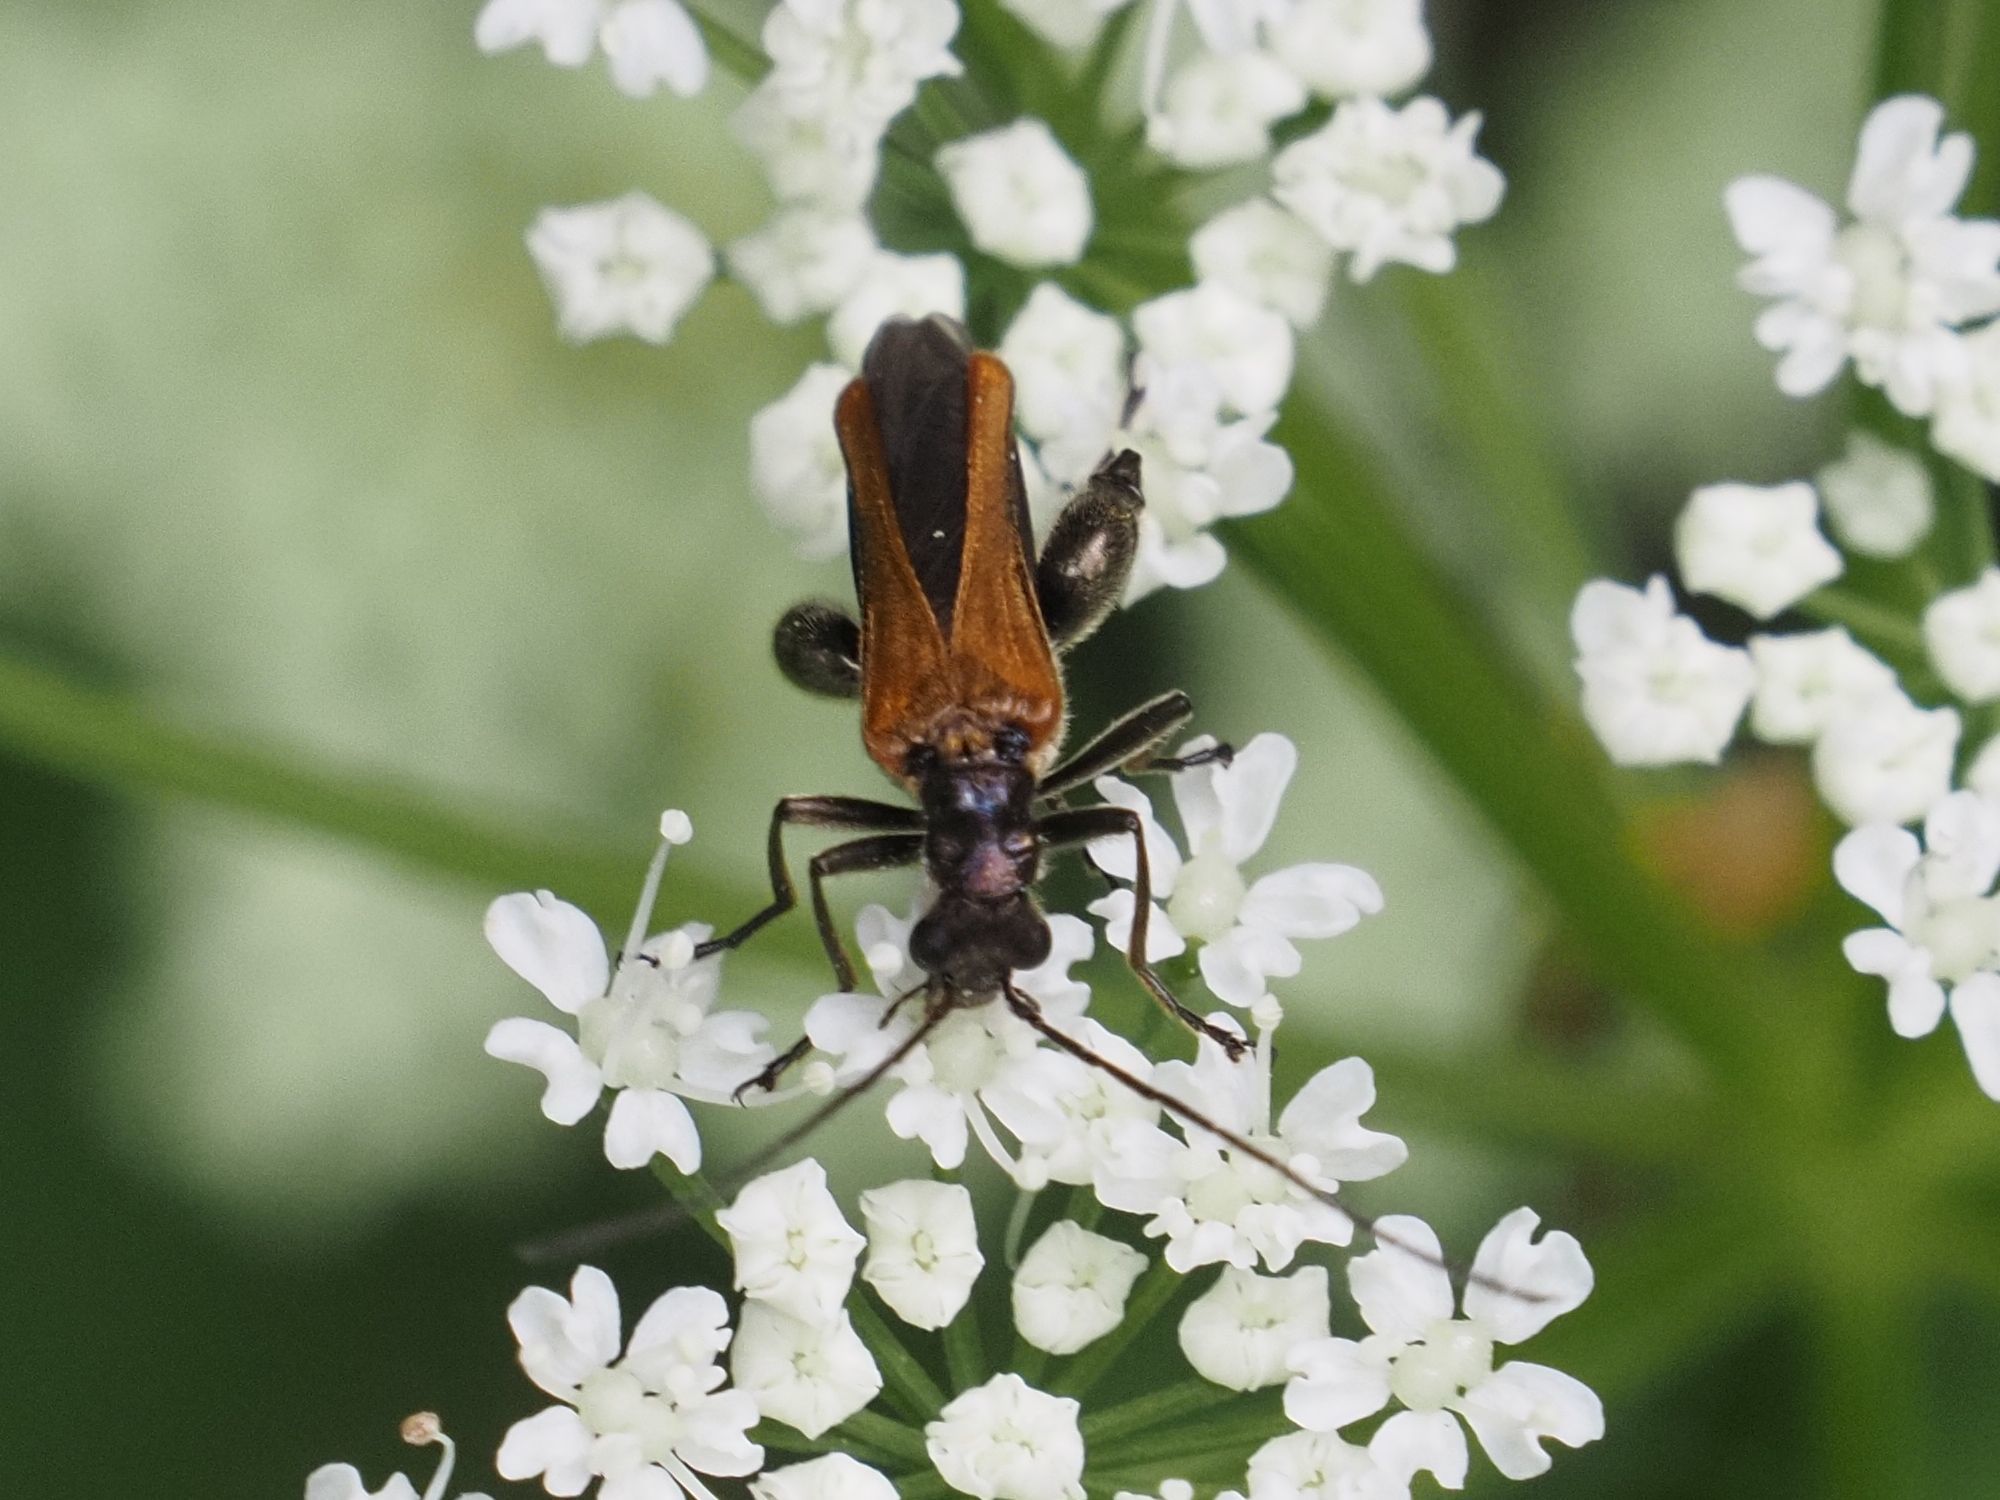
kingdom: Animalia
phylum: Arthropoda
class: Insecta
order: Coleoptera
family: Oedemeridae
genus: Oedemera
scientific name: Oedemera femorata
